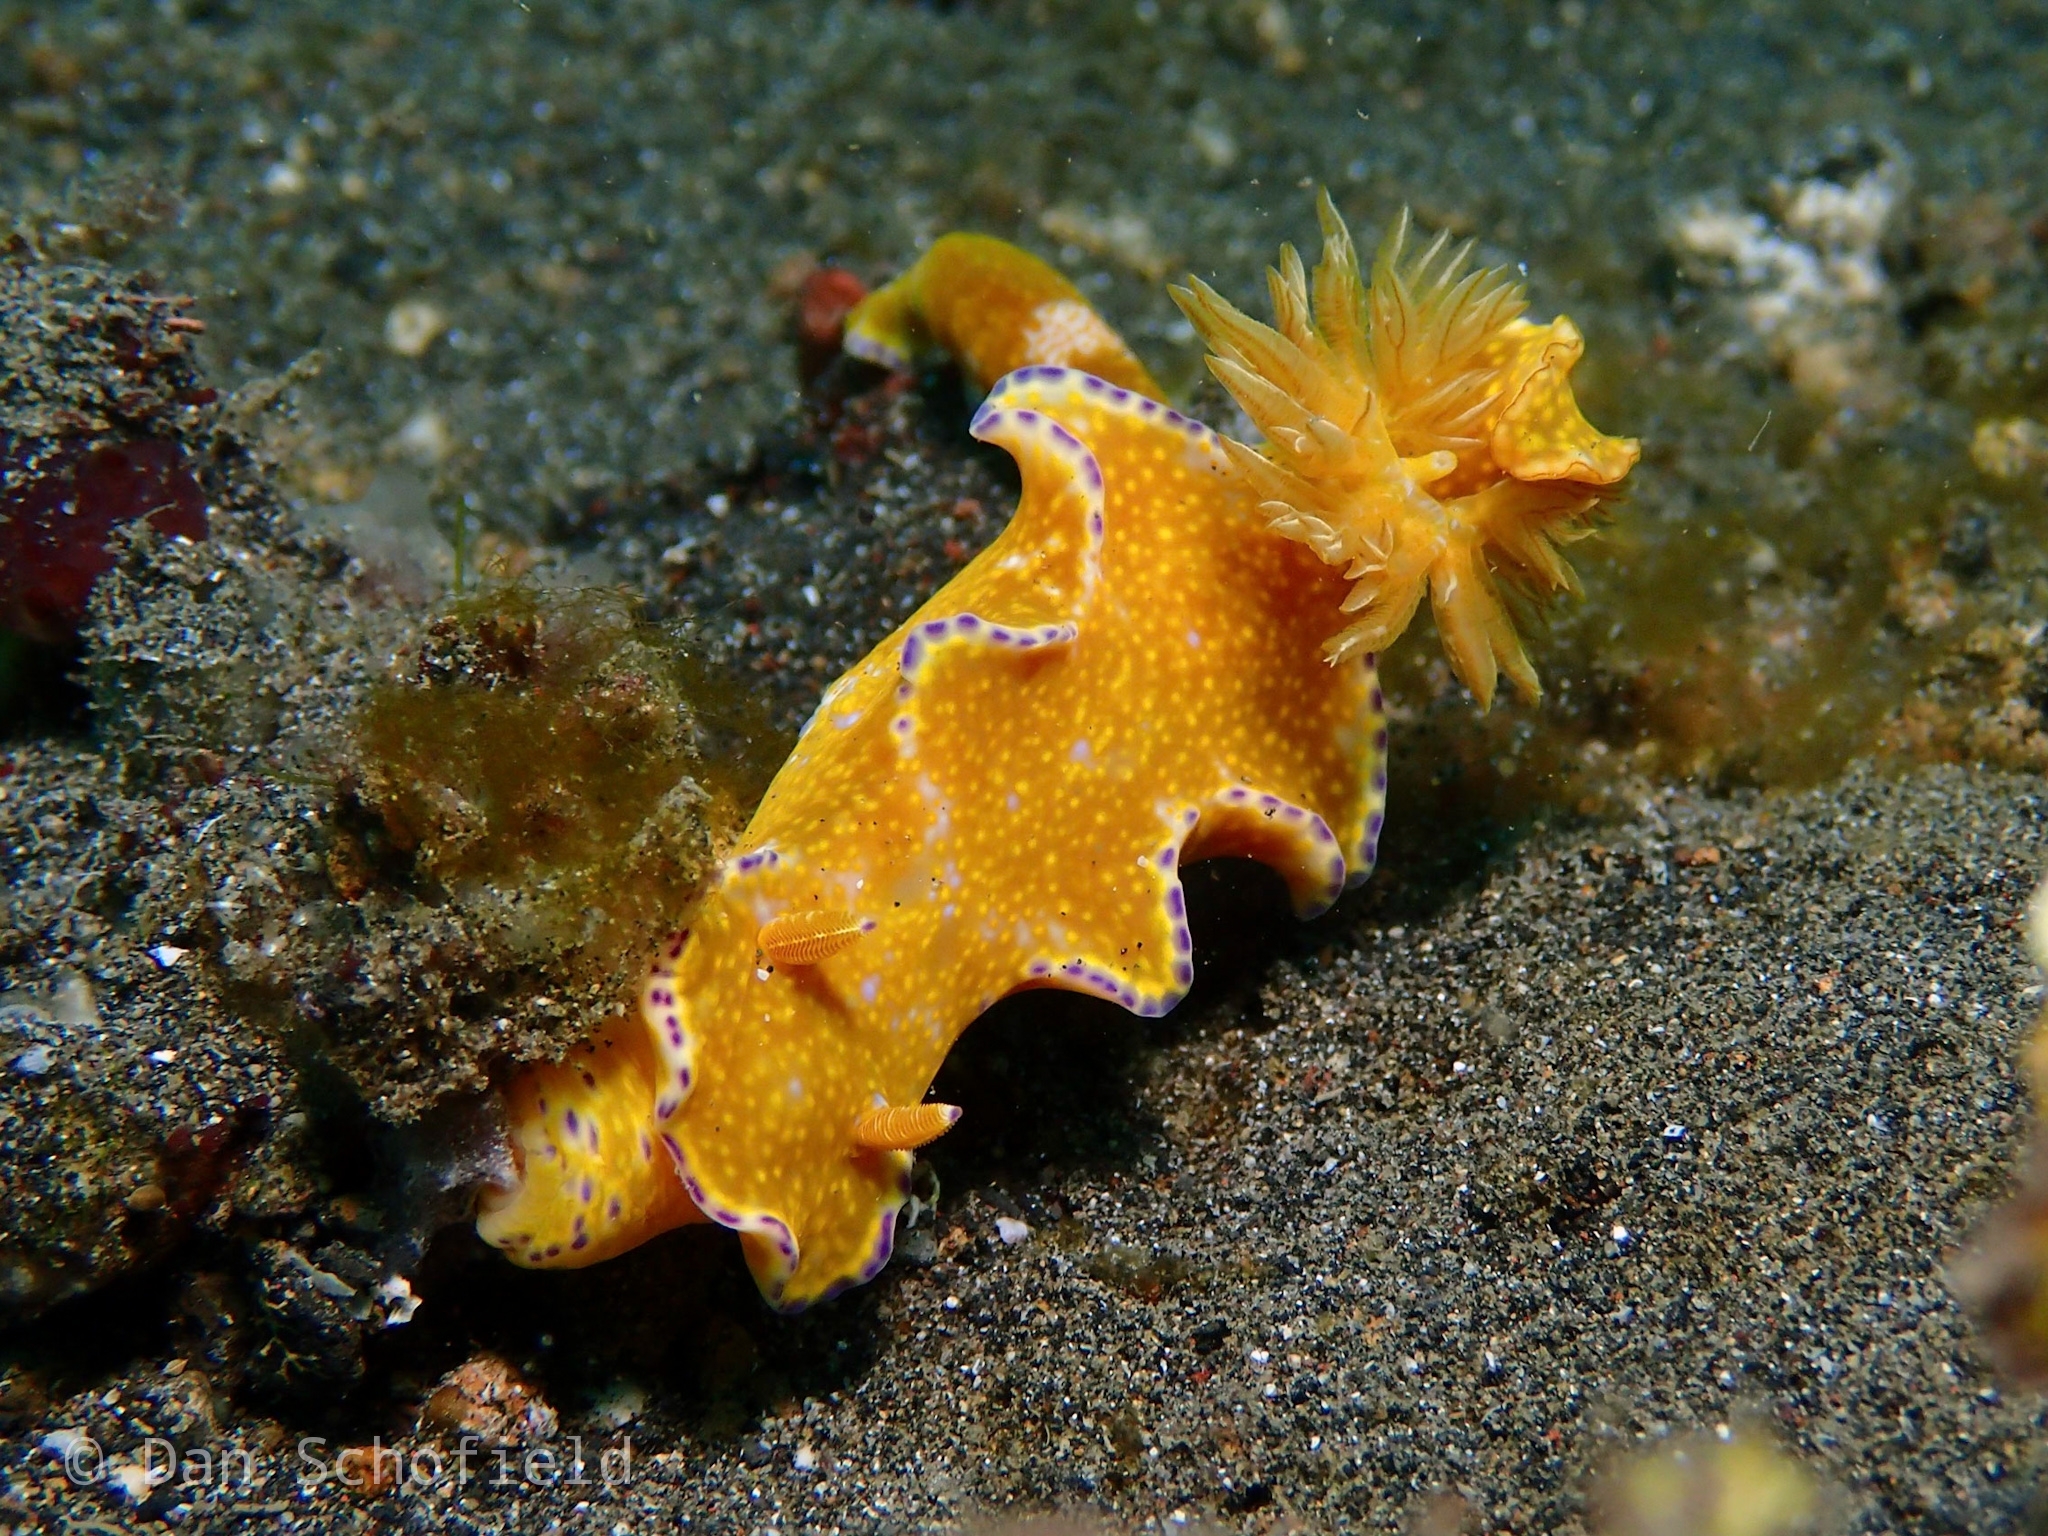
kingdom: Animalia
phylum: Mollusca
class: Gastropoda
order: Nudibranchia
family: Chromodorididae
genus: Ceratosoma
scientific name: Ceratosoma tenue
